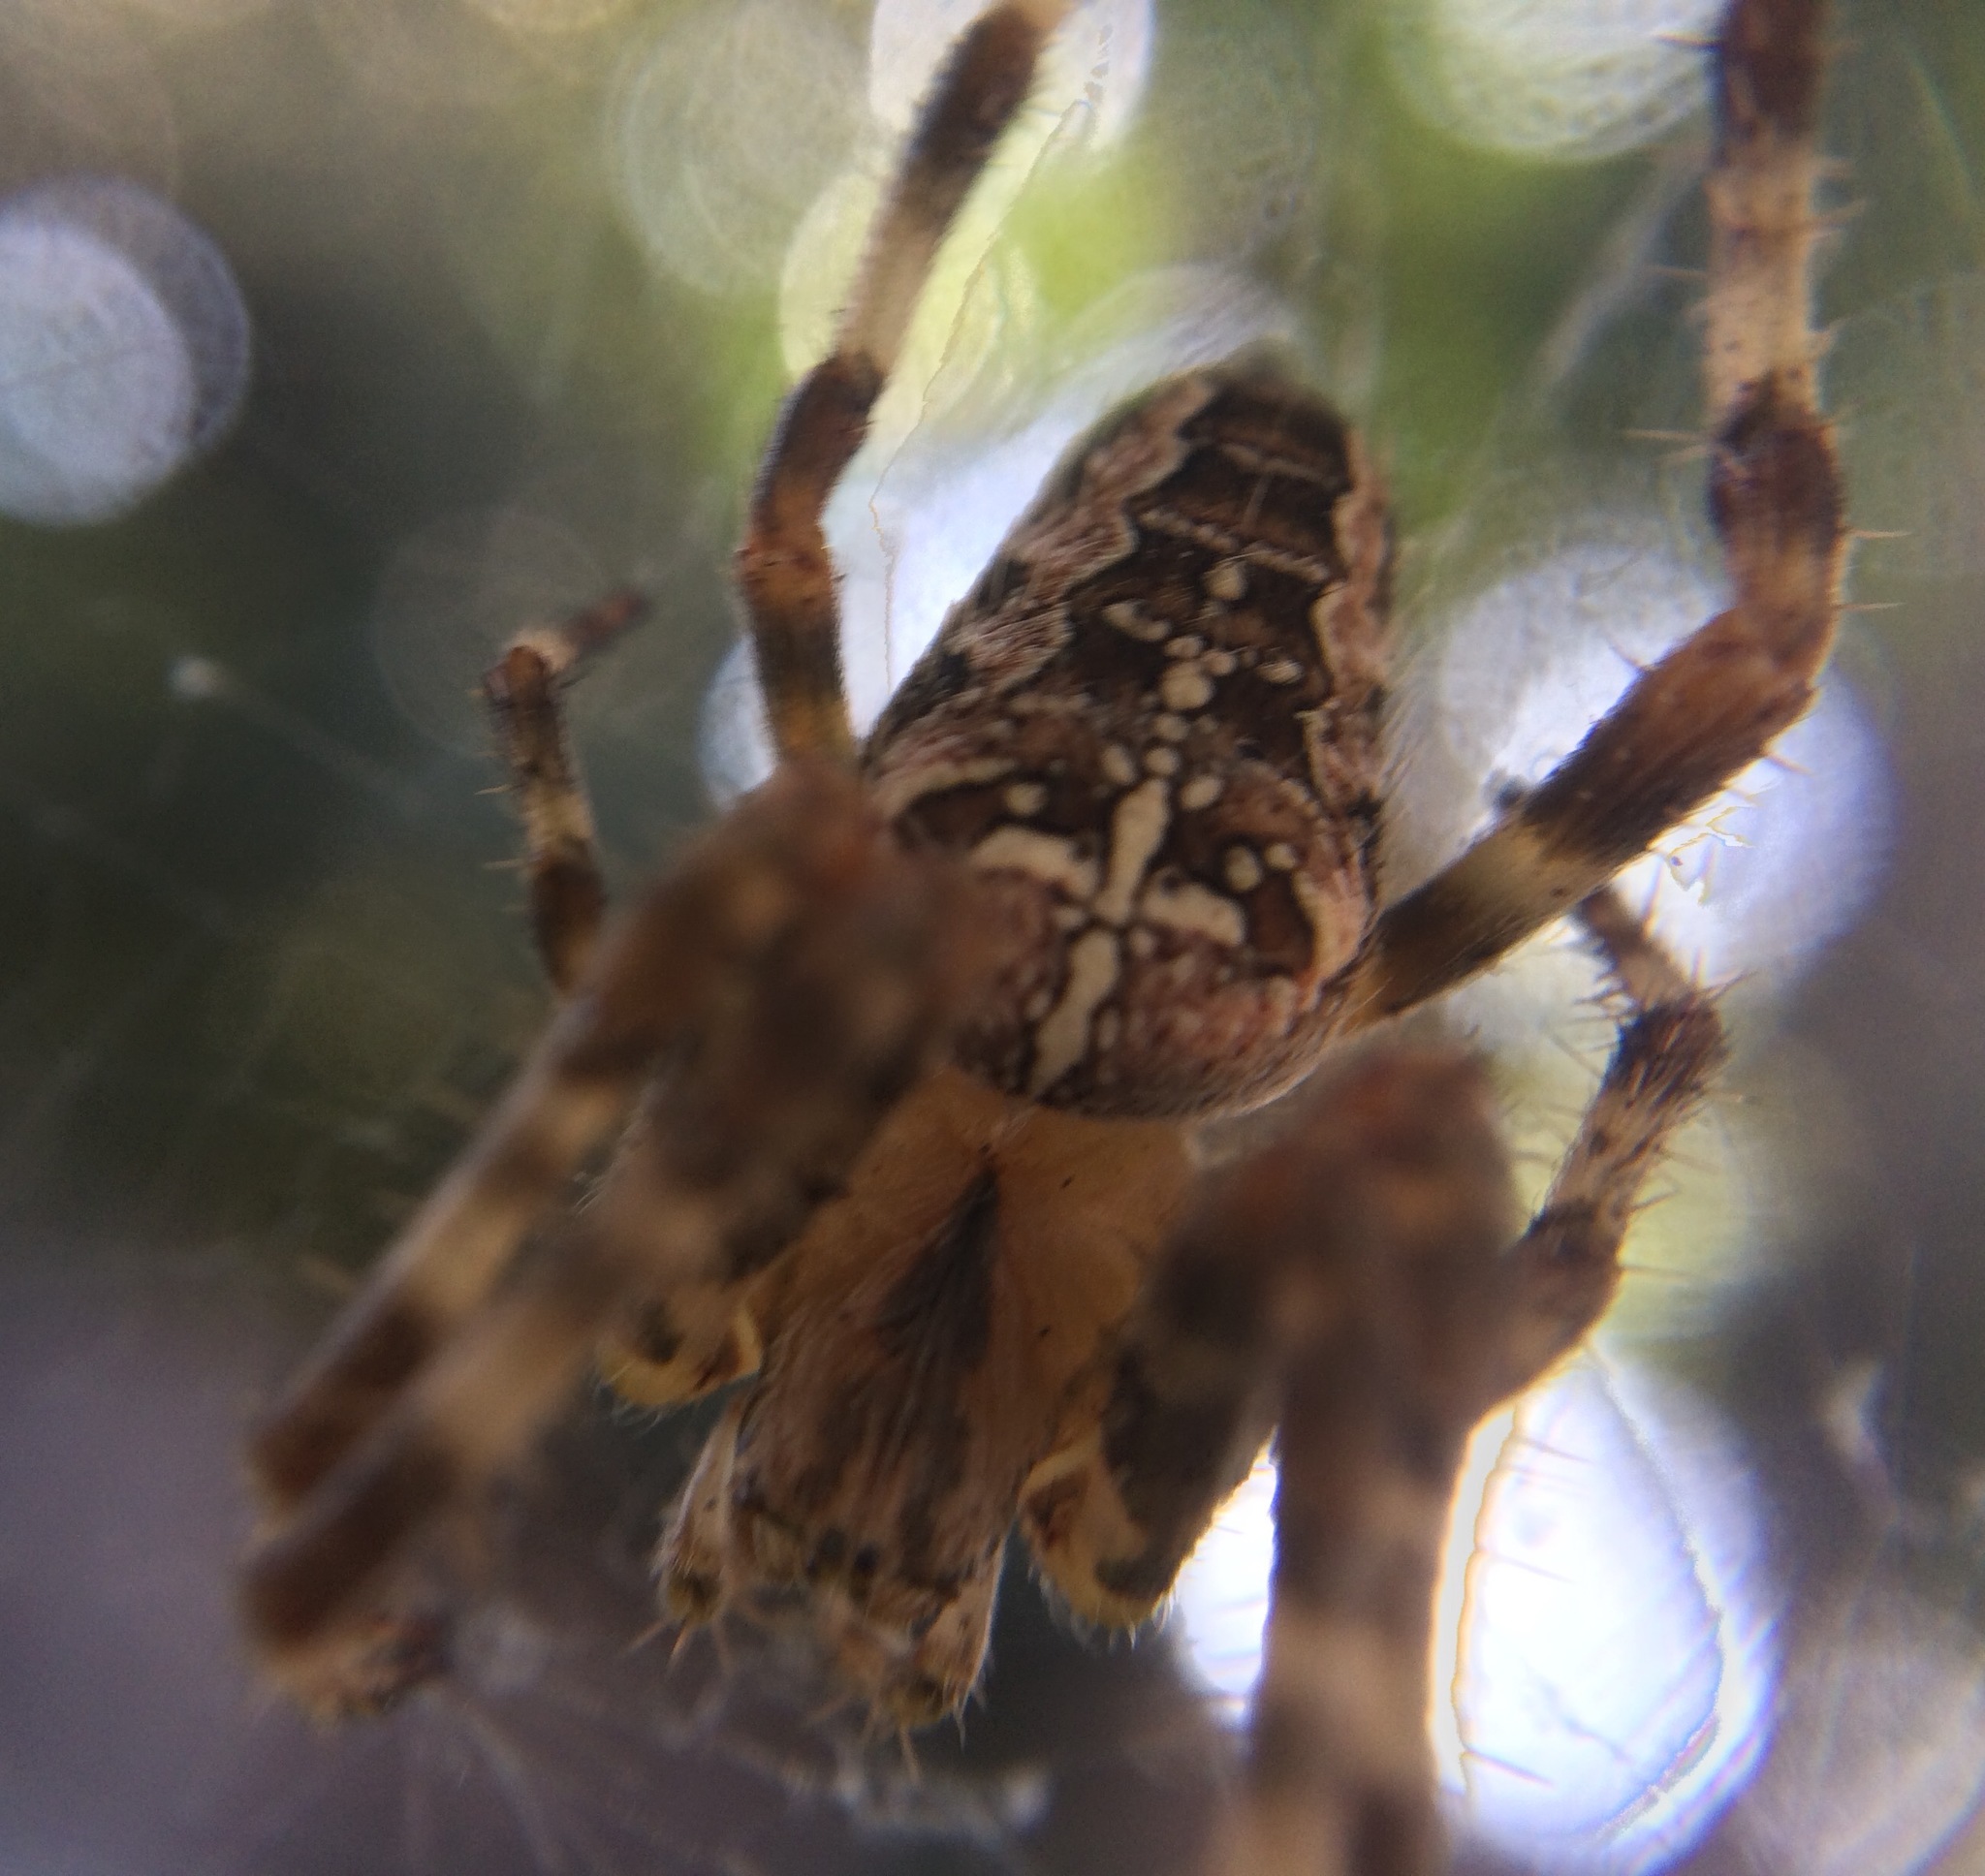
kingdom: Animalia
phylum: Arthropoda
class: Arachnida
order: Araneae
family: Araneidae
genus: Araneus
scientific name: Araneus diadematus
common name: Cross orbweaver
